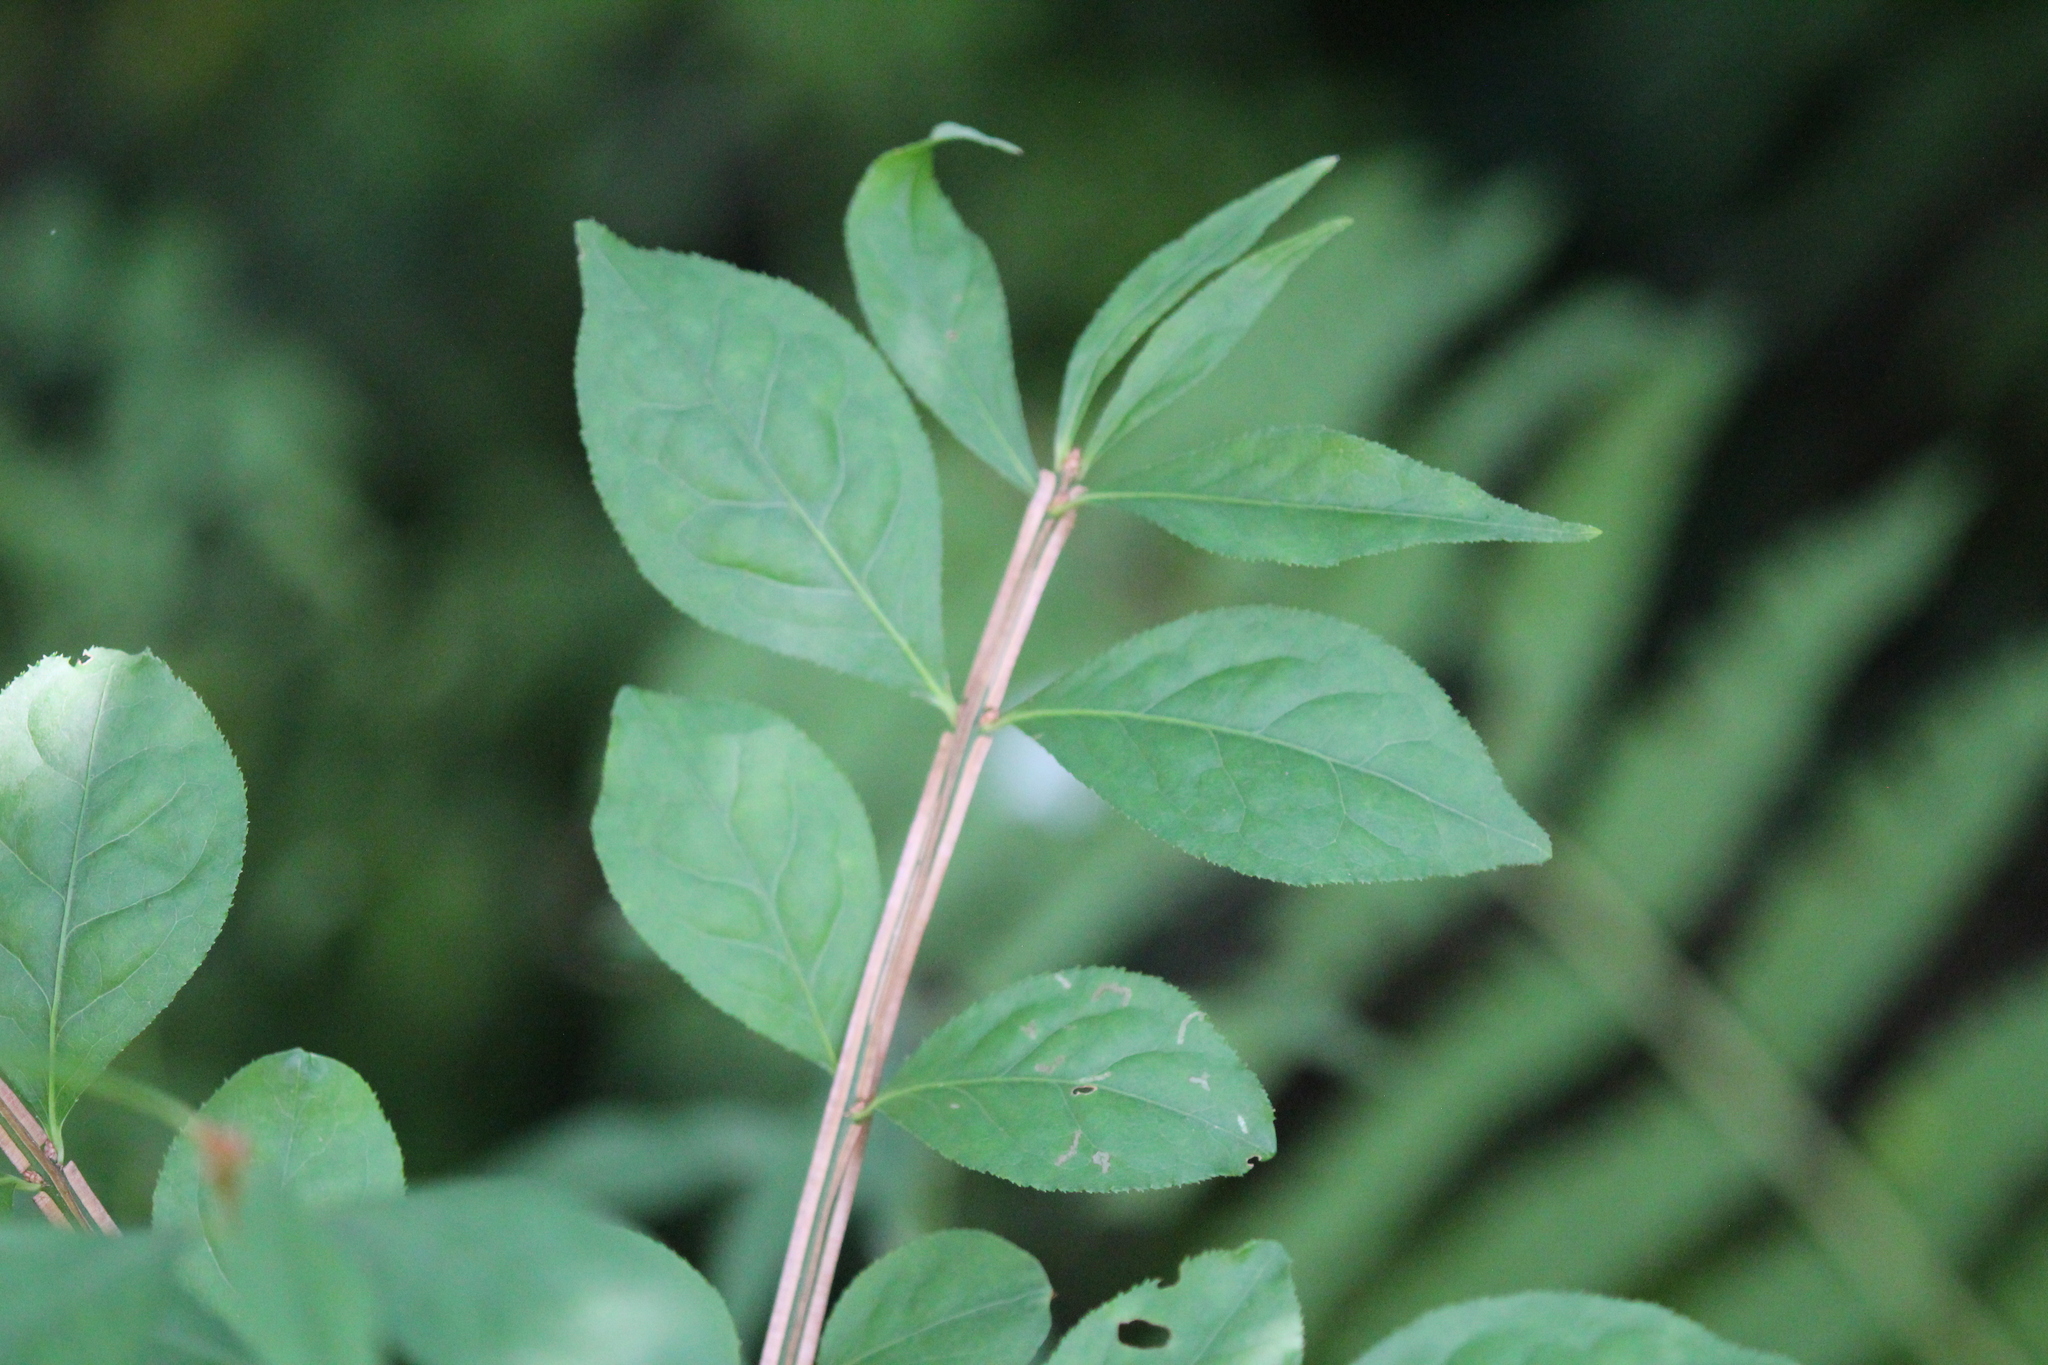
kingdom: Plantae
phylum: Tracheophyta
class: Magnoliopsida
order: Celastrales
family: Celastraceae
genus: Euonymus
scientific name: Euonymus alatus
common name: Winged euonymus
